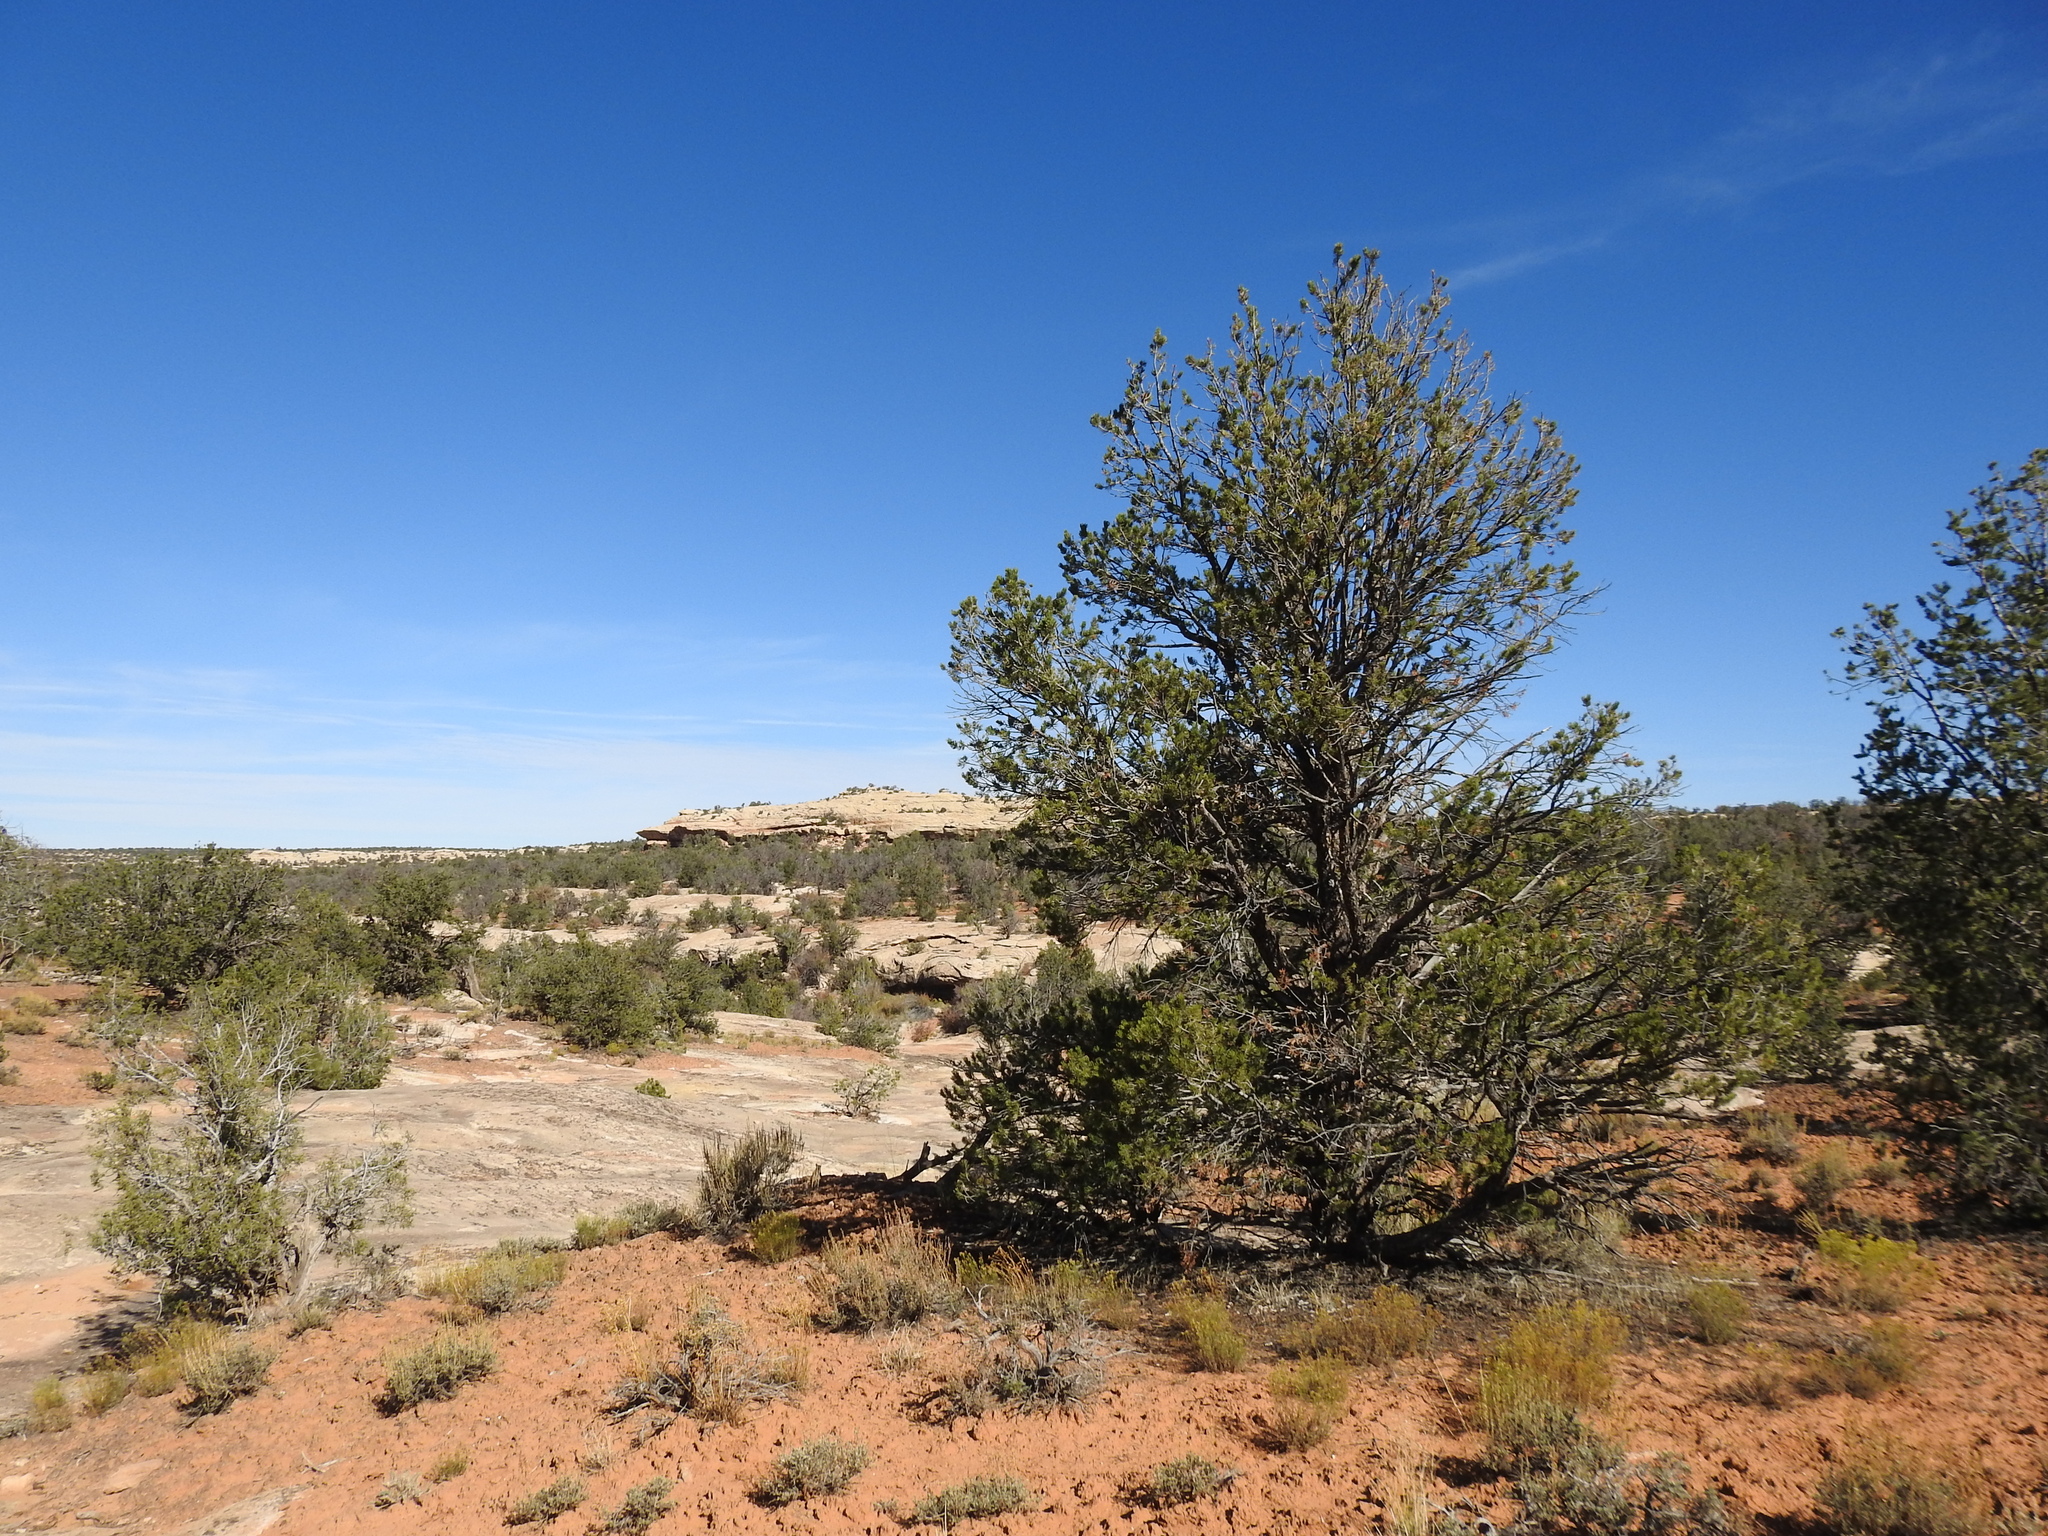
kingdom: Plantae
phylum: Tracheophyta
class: Pinopsida
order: Pinales
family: Pinaceae
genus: Pinus
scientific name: Pinus edulis
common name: Colorado pinyon
